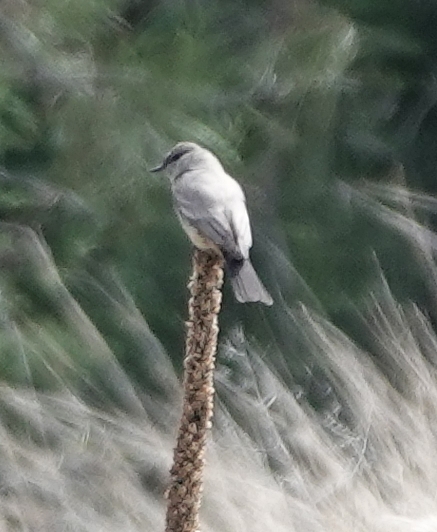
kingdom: Animalia
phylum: Chordata
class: Aves
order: Passeriformes
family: Tyrannidae
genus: Sayornis
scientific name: Sayornis saya
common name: Say's phoebe
